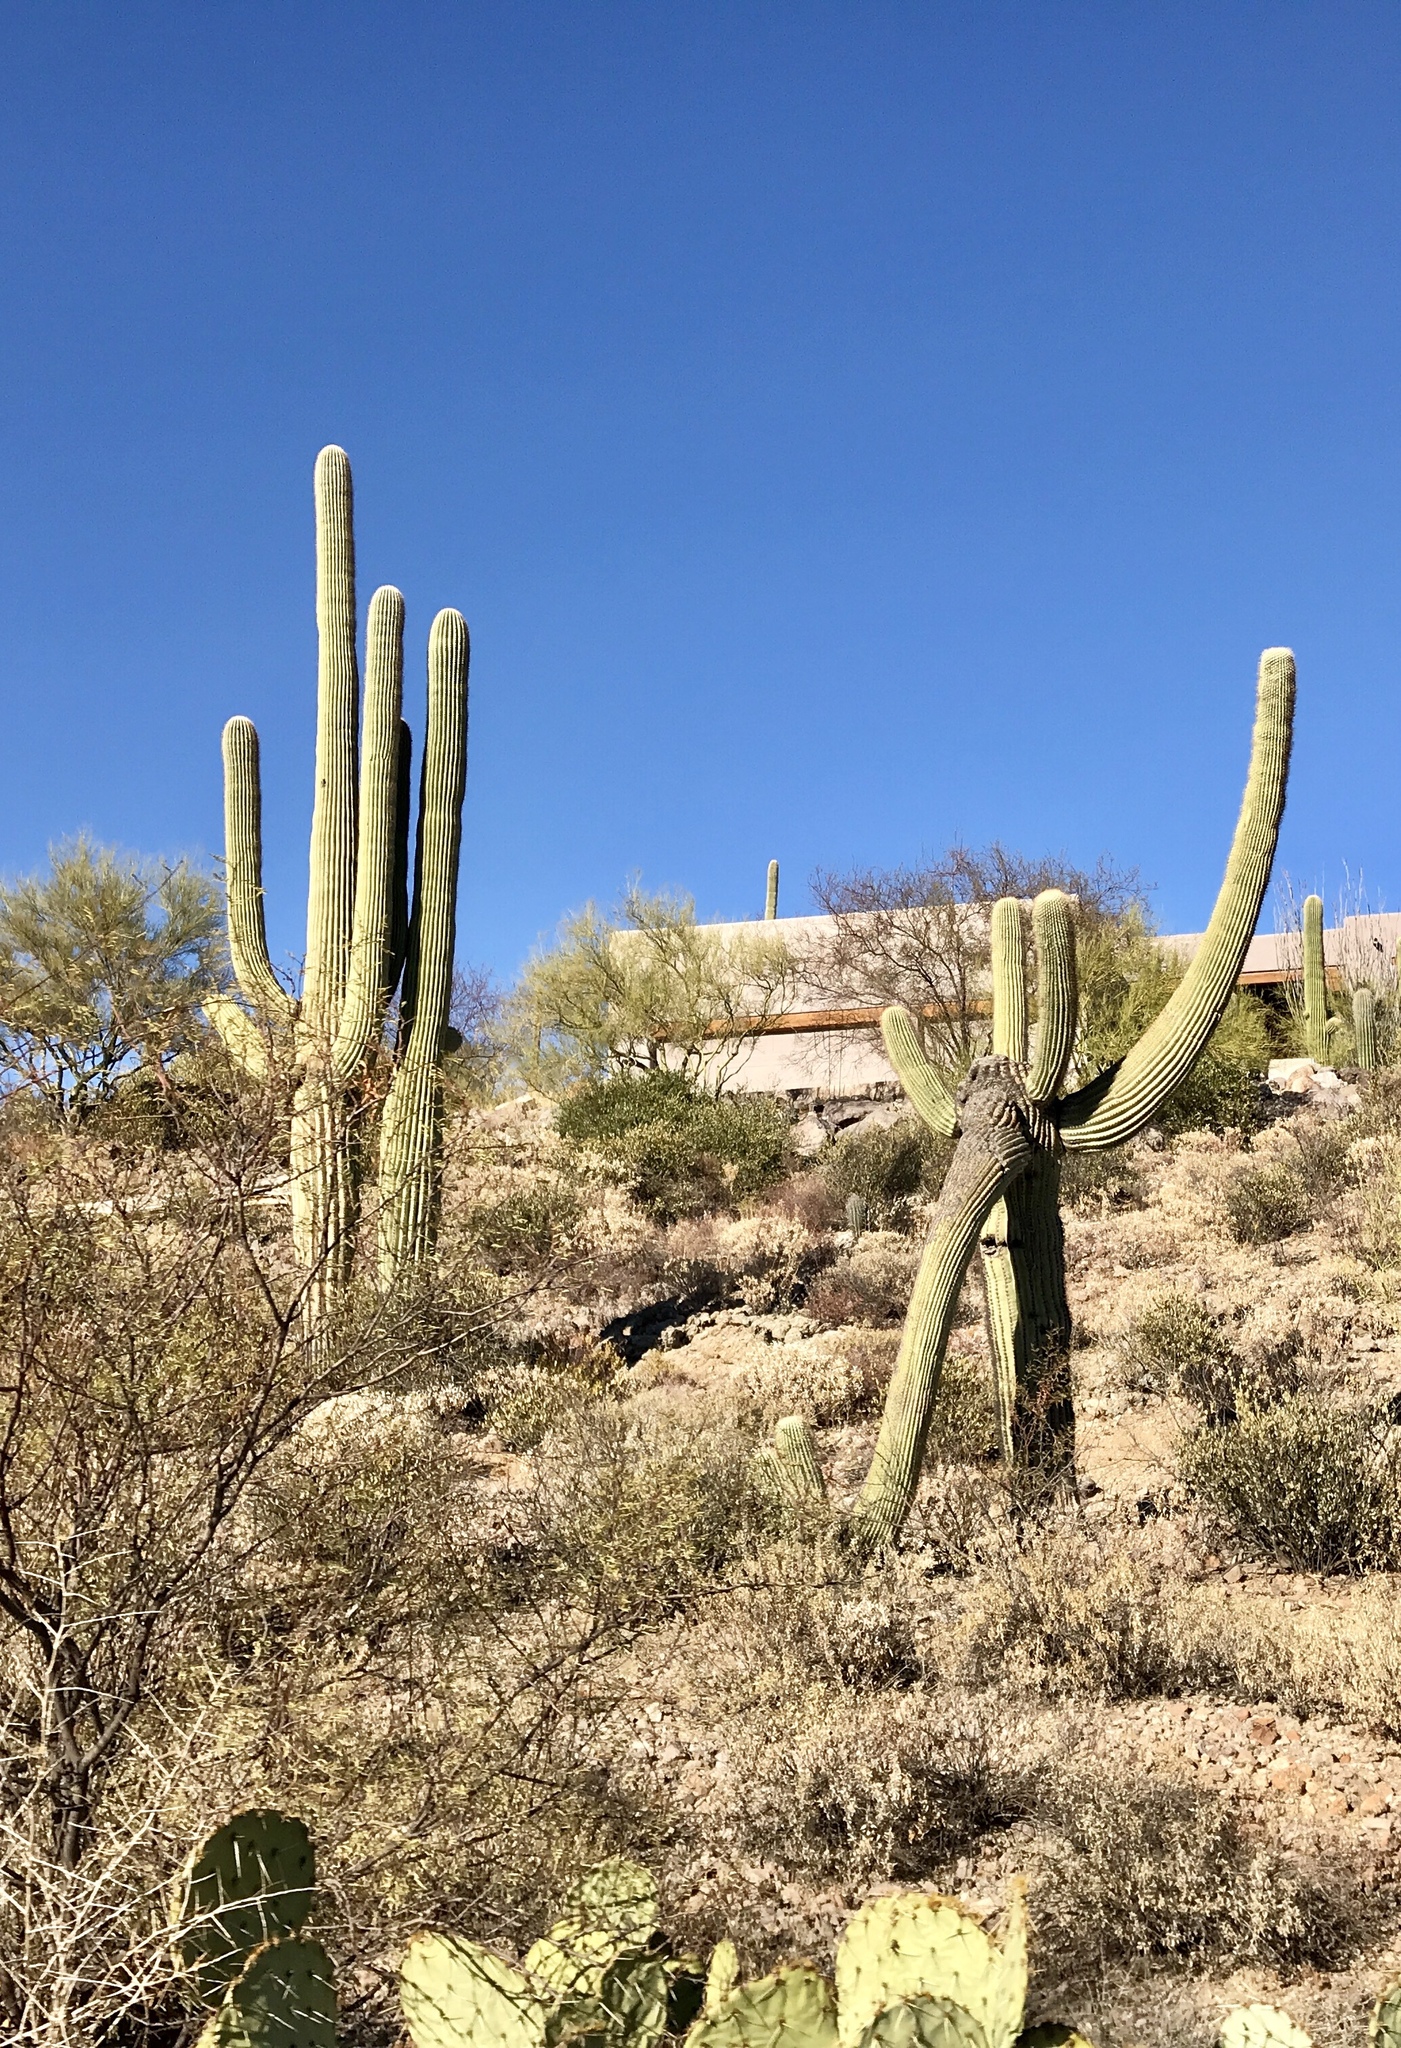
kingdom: Plantae
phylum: Tracheophyta
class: Magnoliopsida
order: Caryophyllales
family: Cactaceae
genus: Carnegiea
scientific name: Carnegiea gigantea
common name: Saguaro
